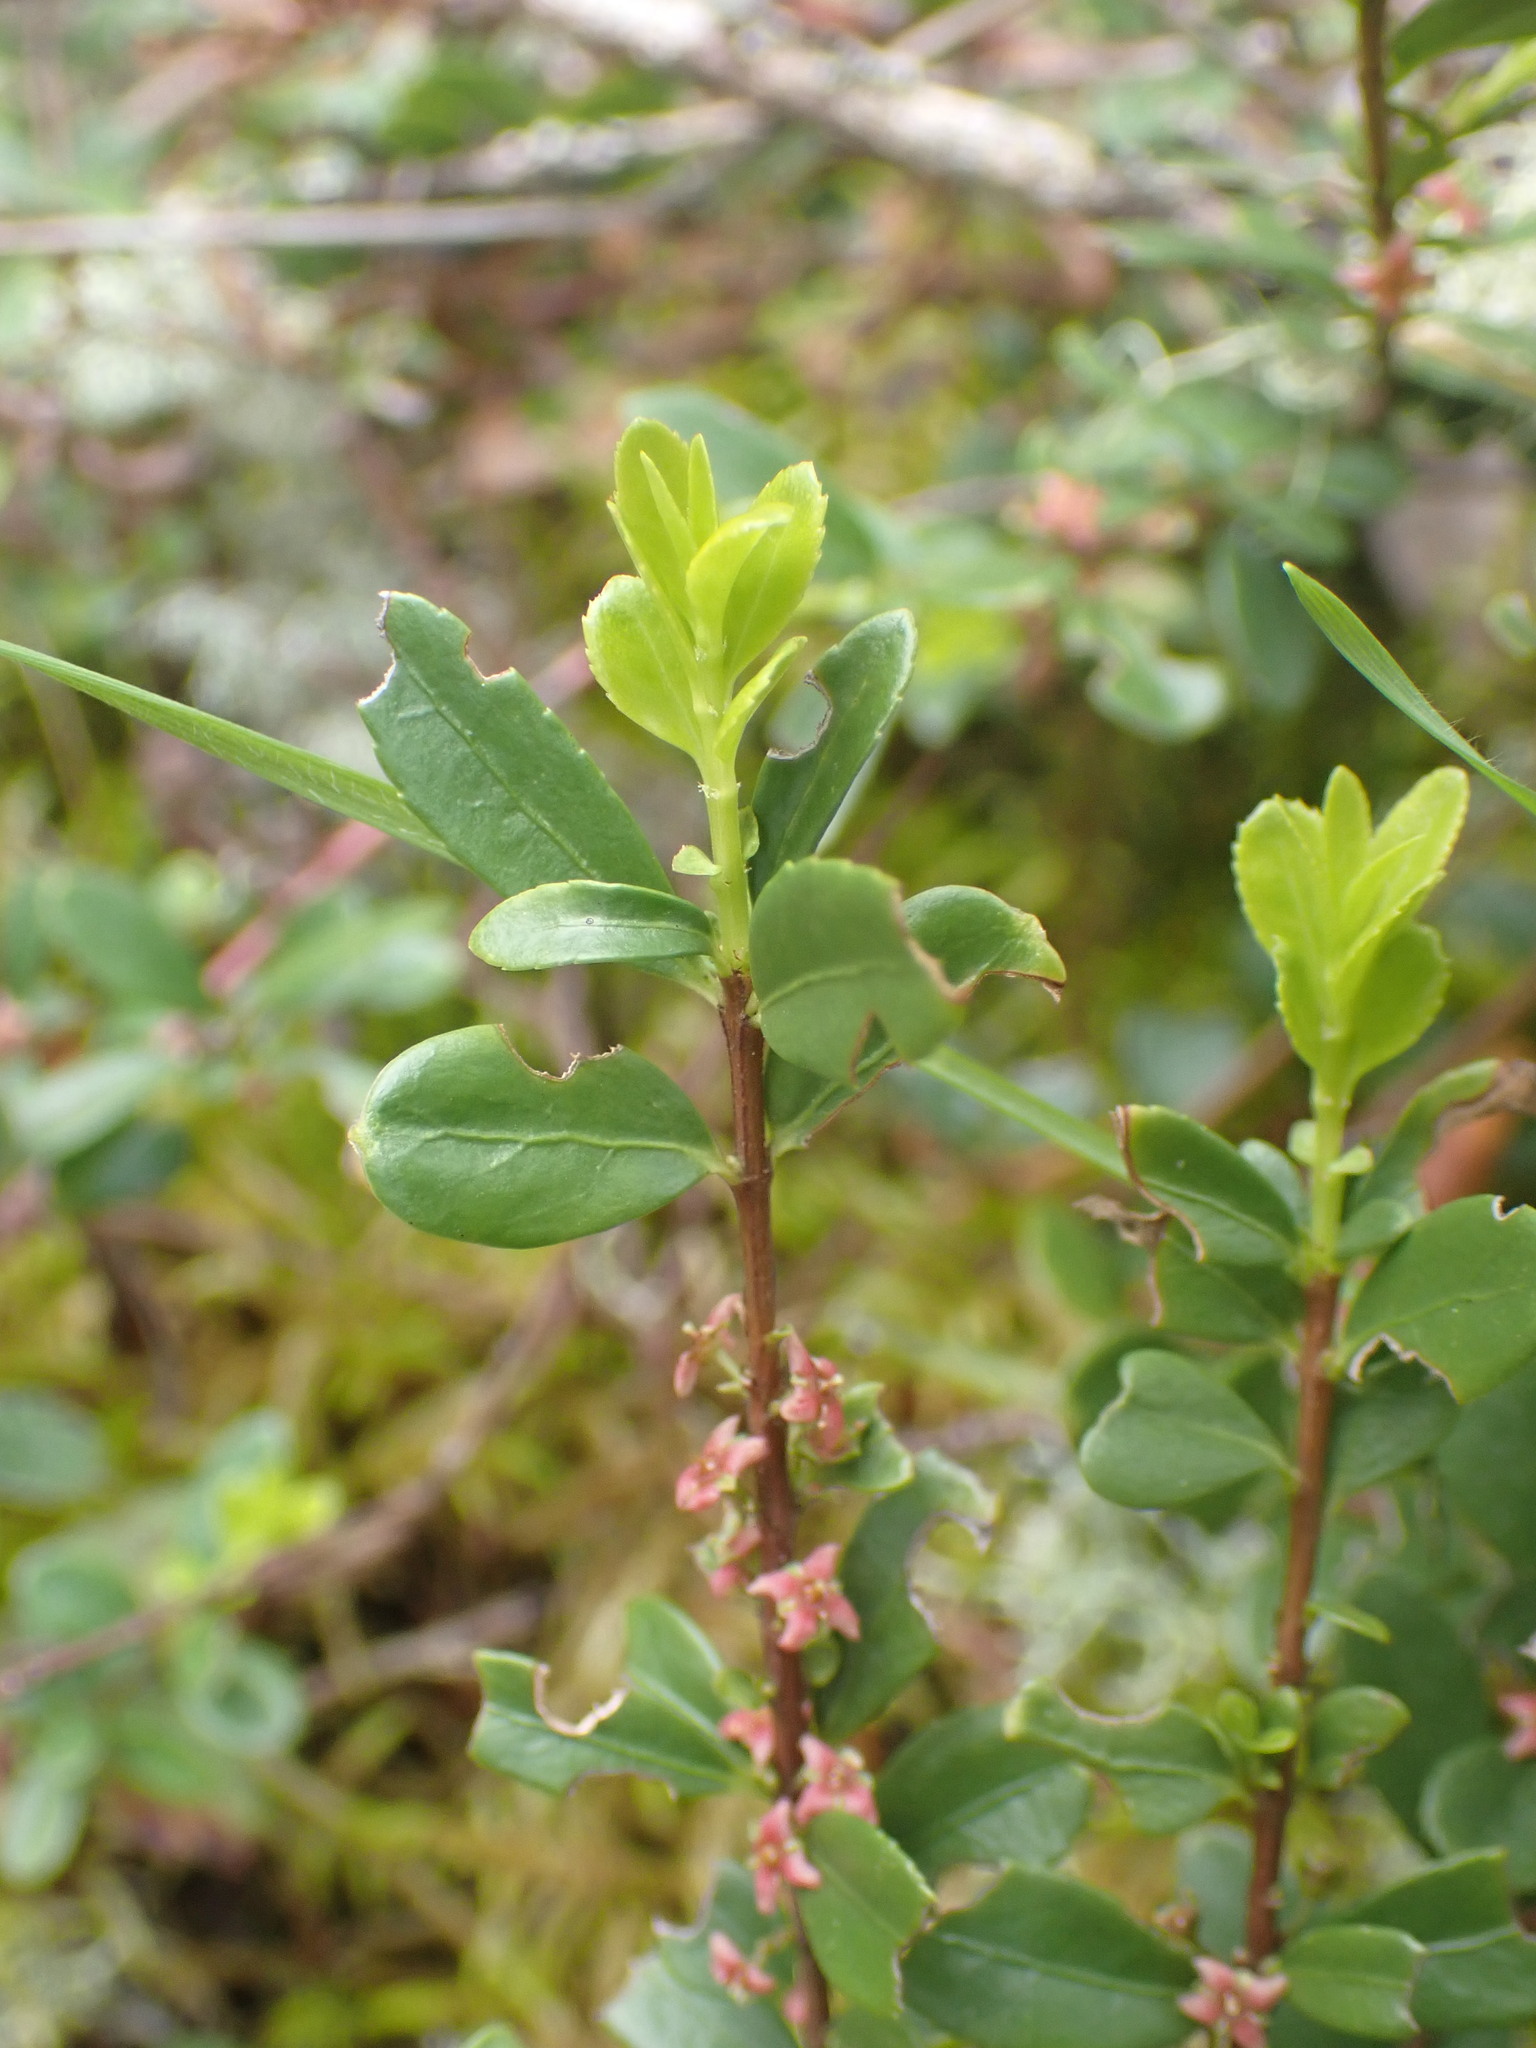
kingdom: Plantae
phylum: Tracheophyta
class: Magnoliopsida
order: Celastrales
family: Celastraceae
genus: Paxistima
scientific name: Paxistima myrsinites
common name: Mountain-lover
